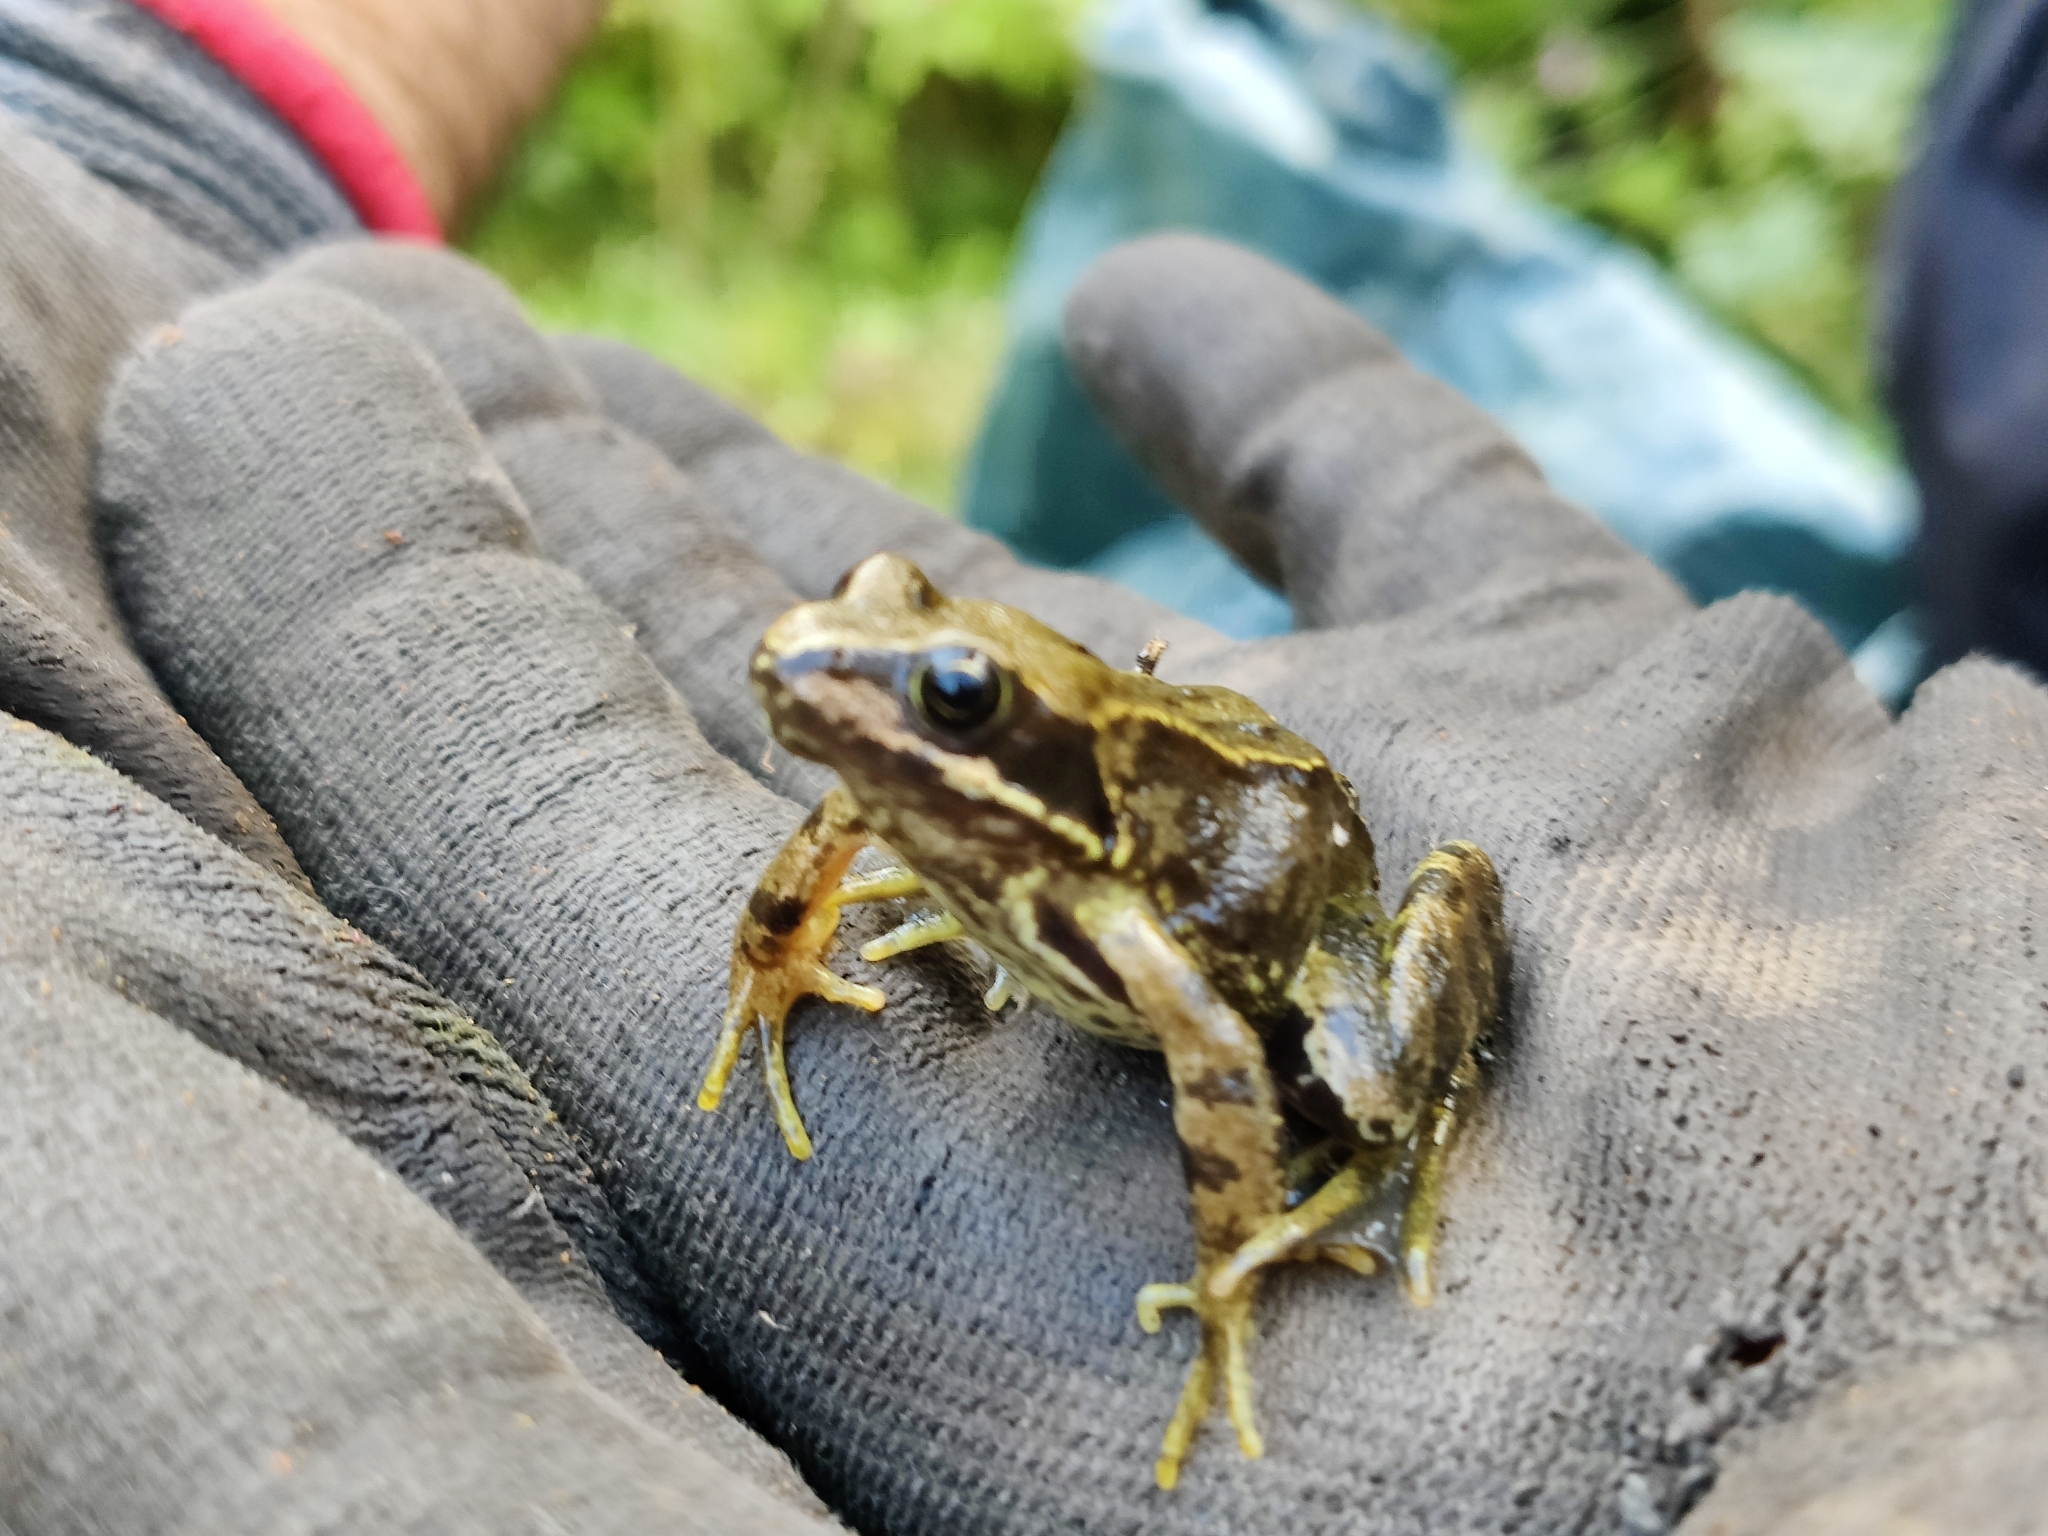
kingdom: Animalia
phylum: Chordata
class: Amphibia
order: Anura
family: Ranidae
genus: Rana
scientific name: Rana temporaria
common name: Common frog
